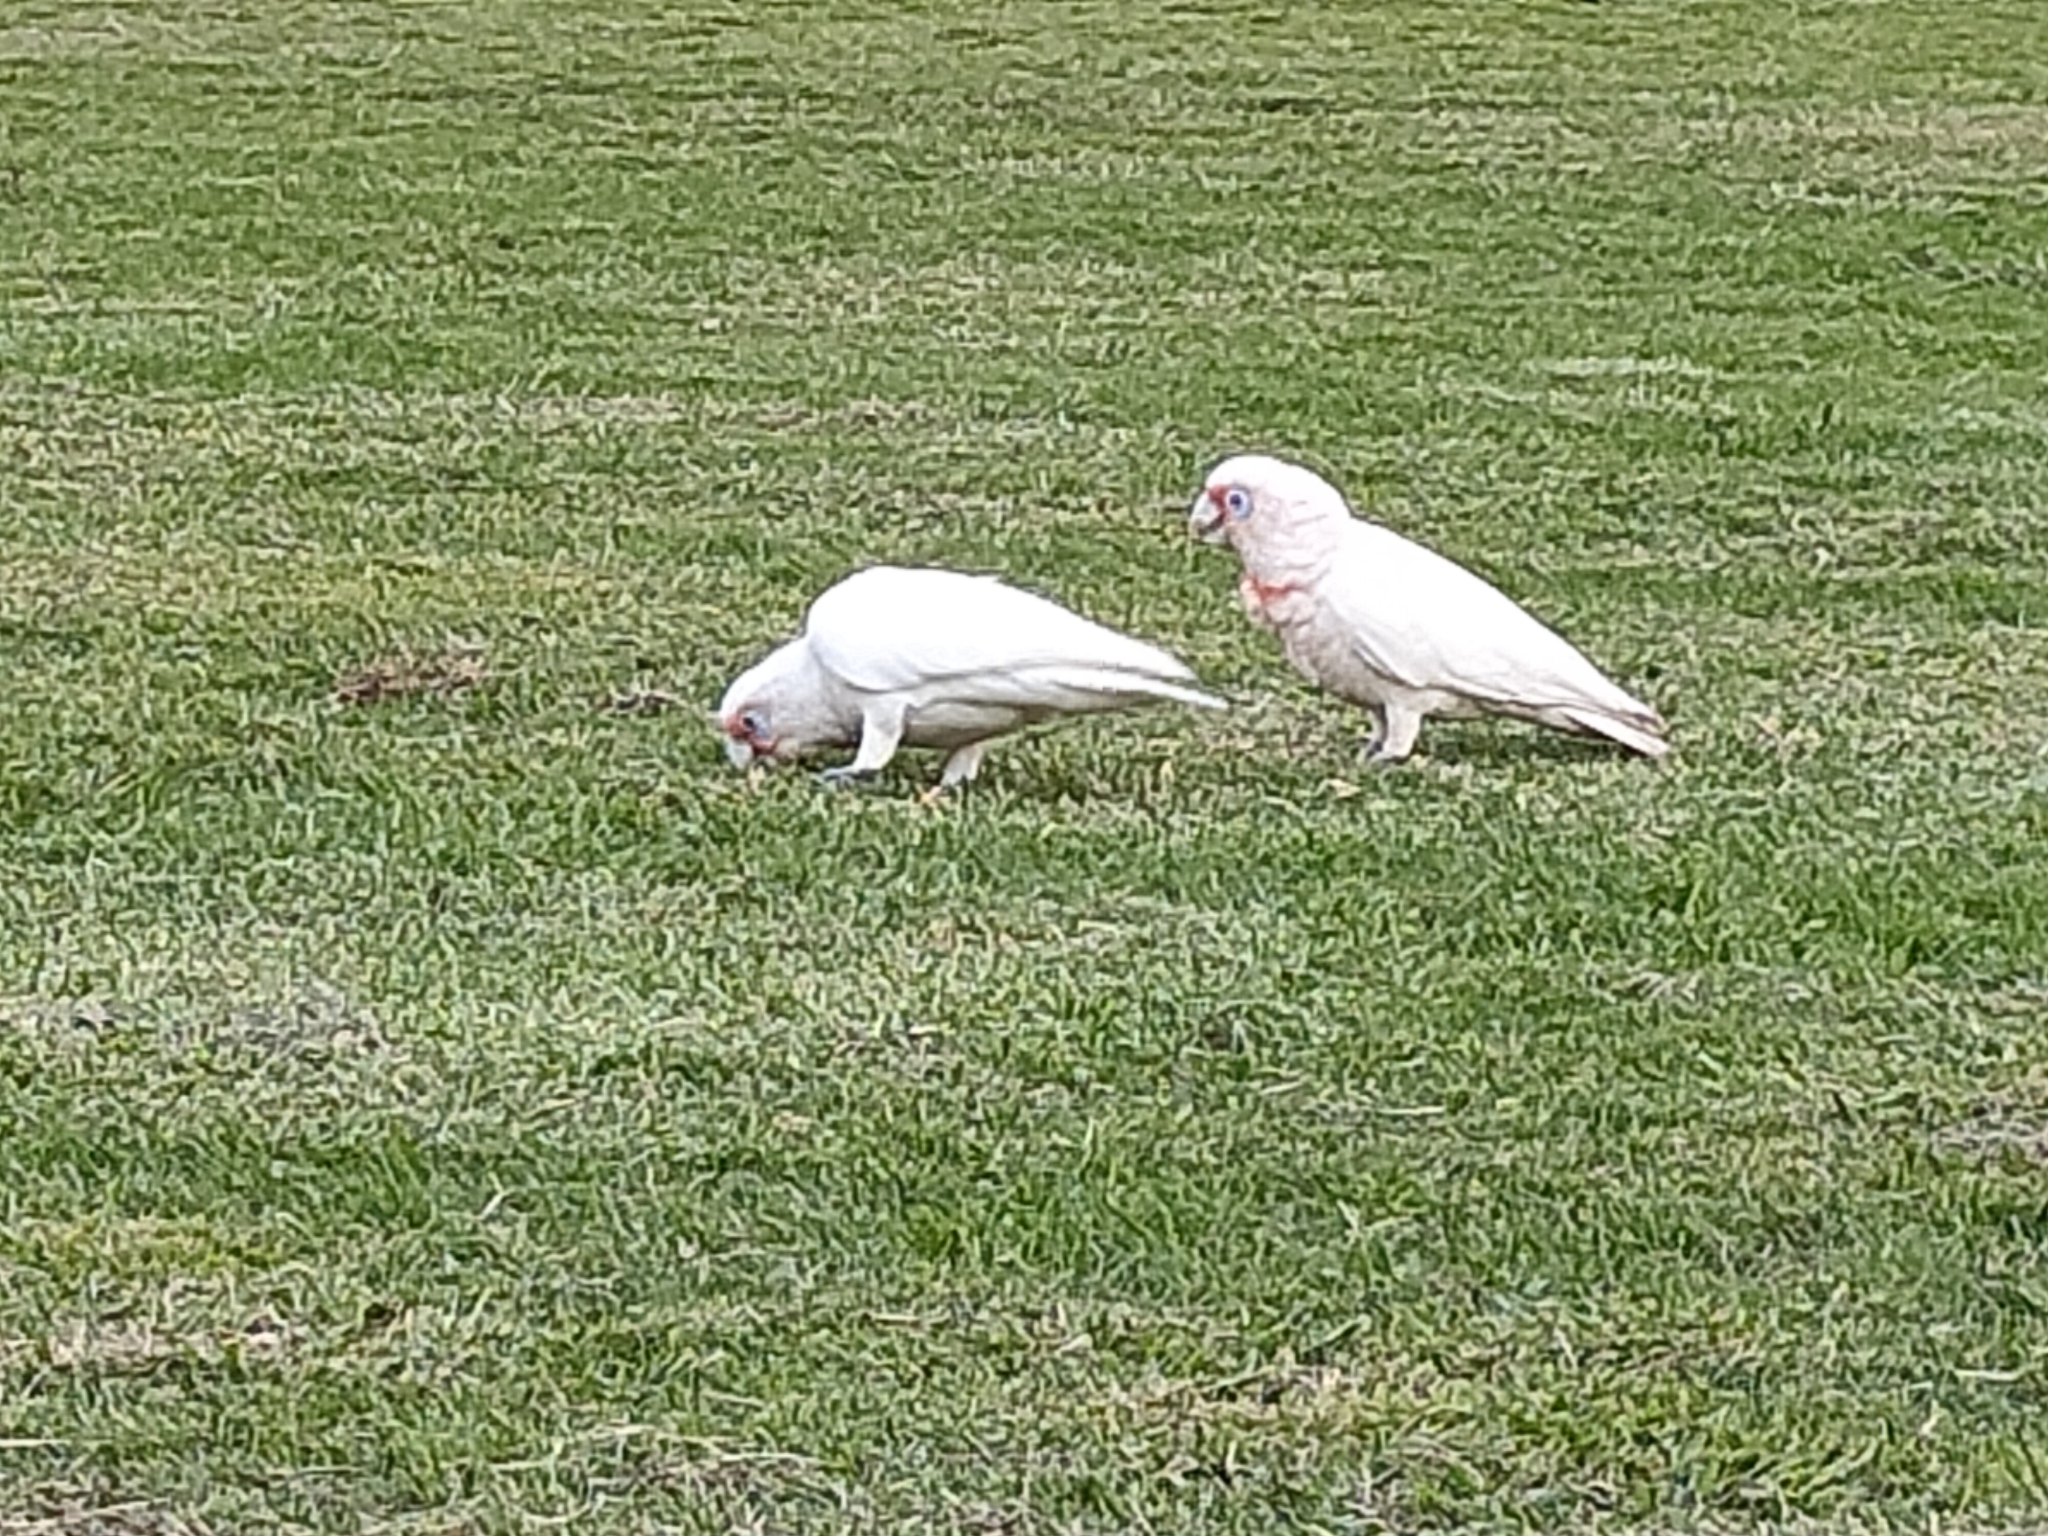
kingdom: Animalia
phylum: Chordata
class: Aves
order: Psittaciformes
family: Psittacidae
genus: Cacatua
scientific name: Cacatua tenuirostris
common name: Long-billed corella
